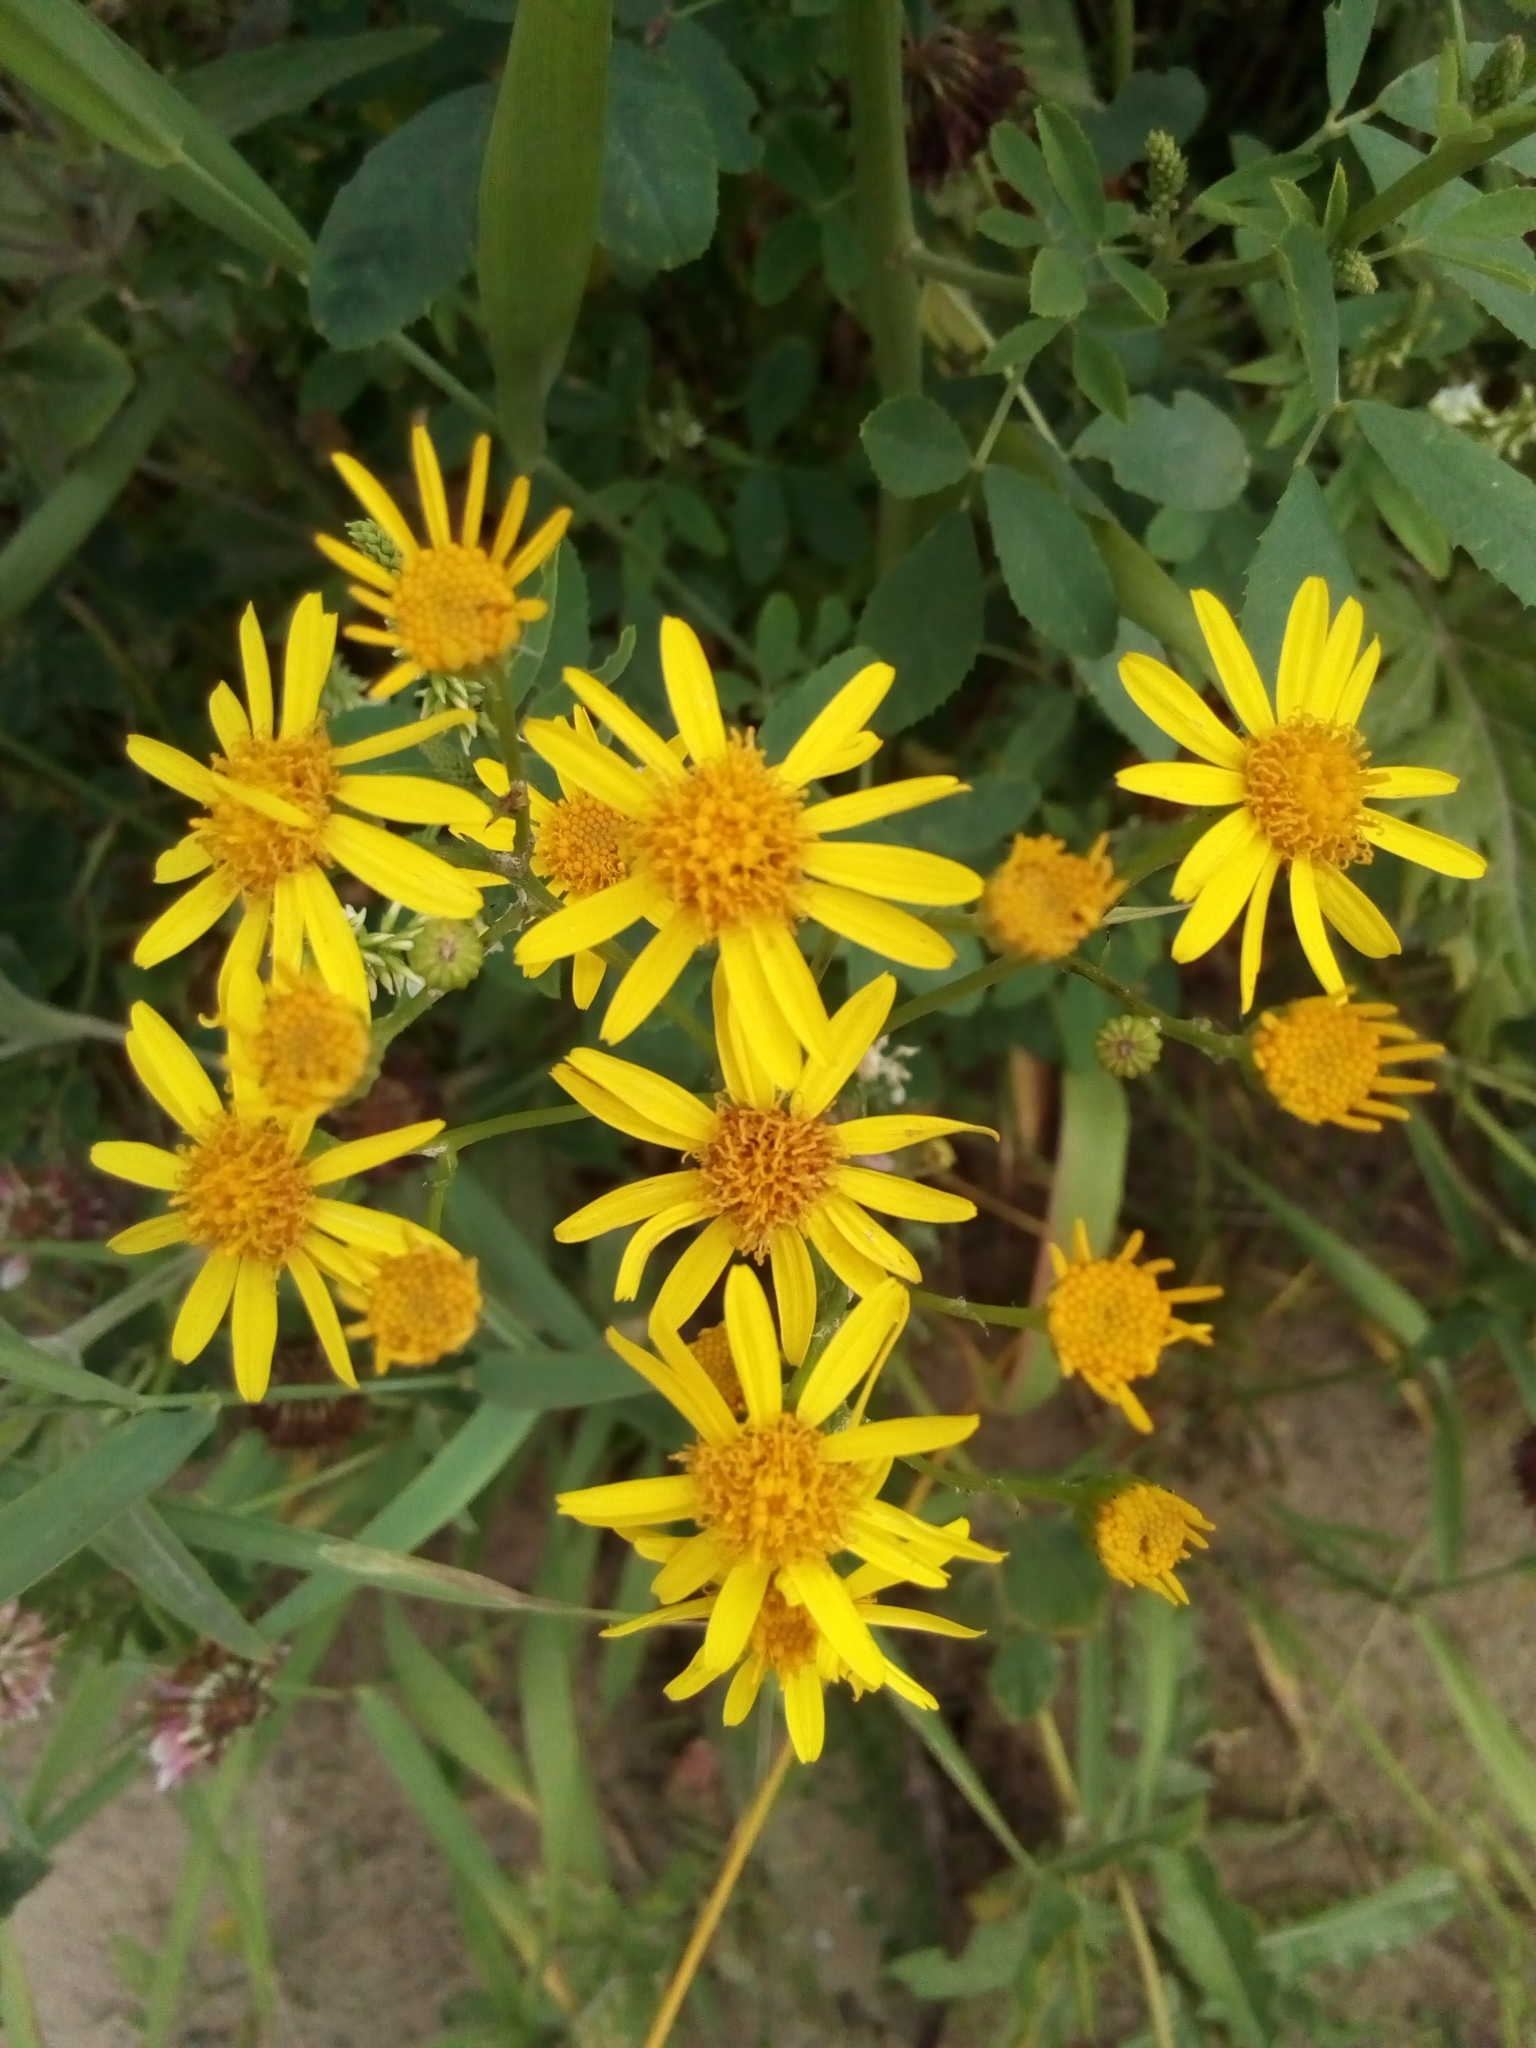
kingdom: Plantae
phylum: Tracheophyta
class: Magnoliopsida
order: Asterales
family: Asteraceae
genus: Jacobaea
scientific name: Jacobaea vulgaris
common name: Stinking willie
